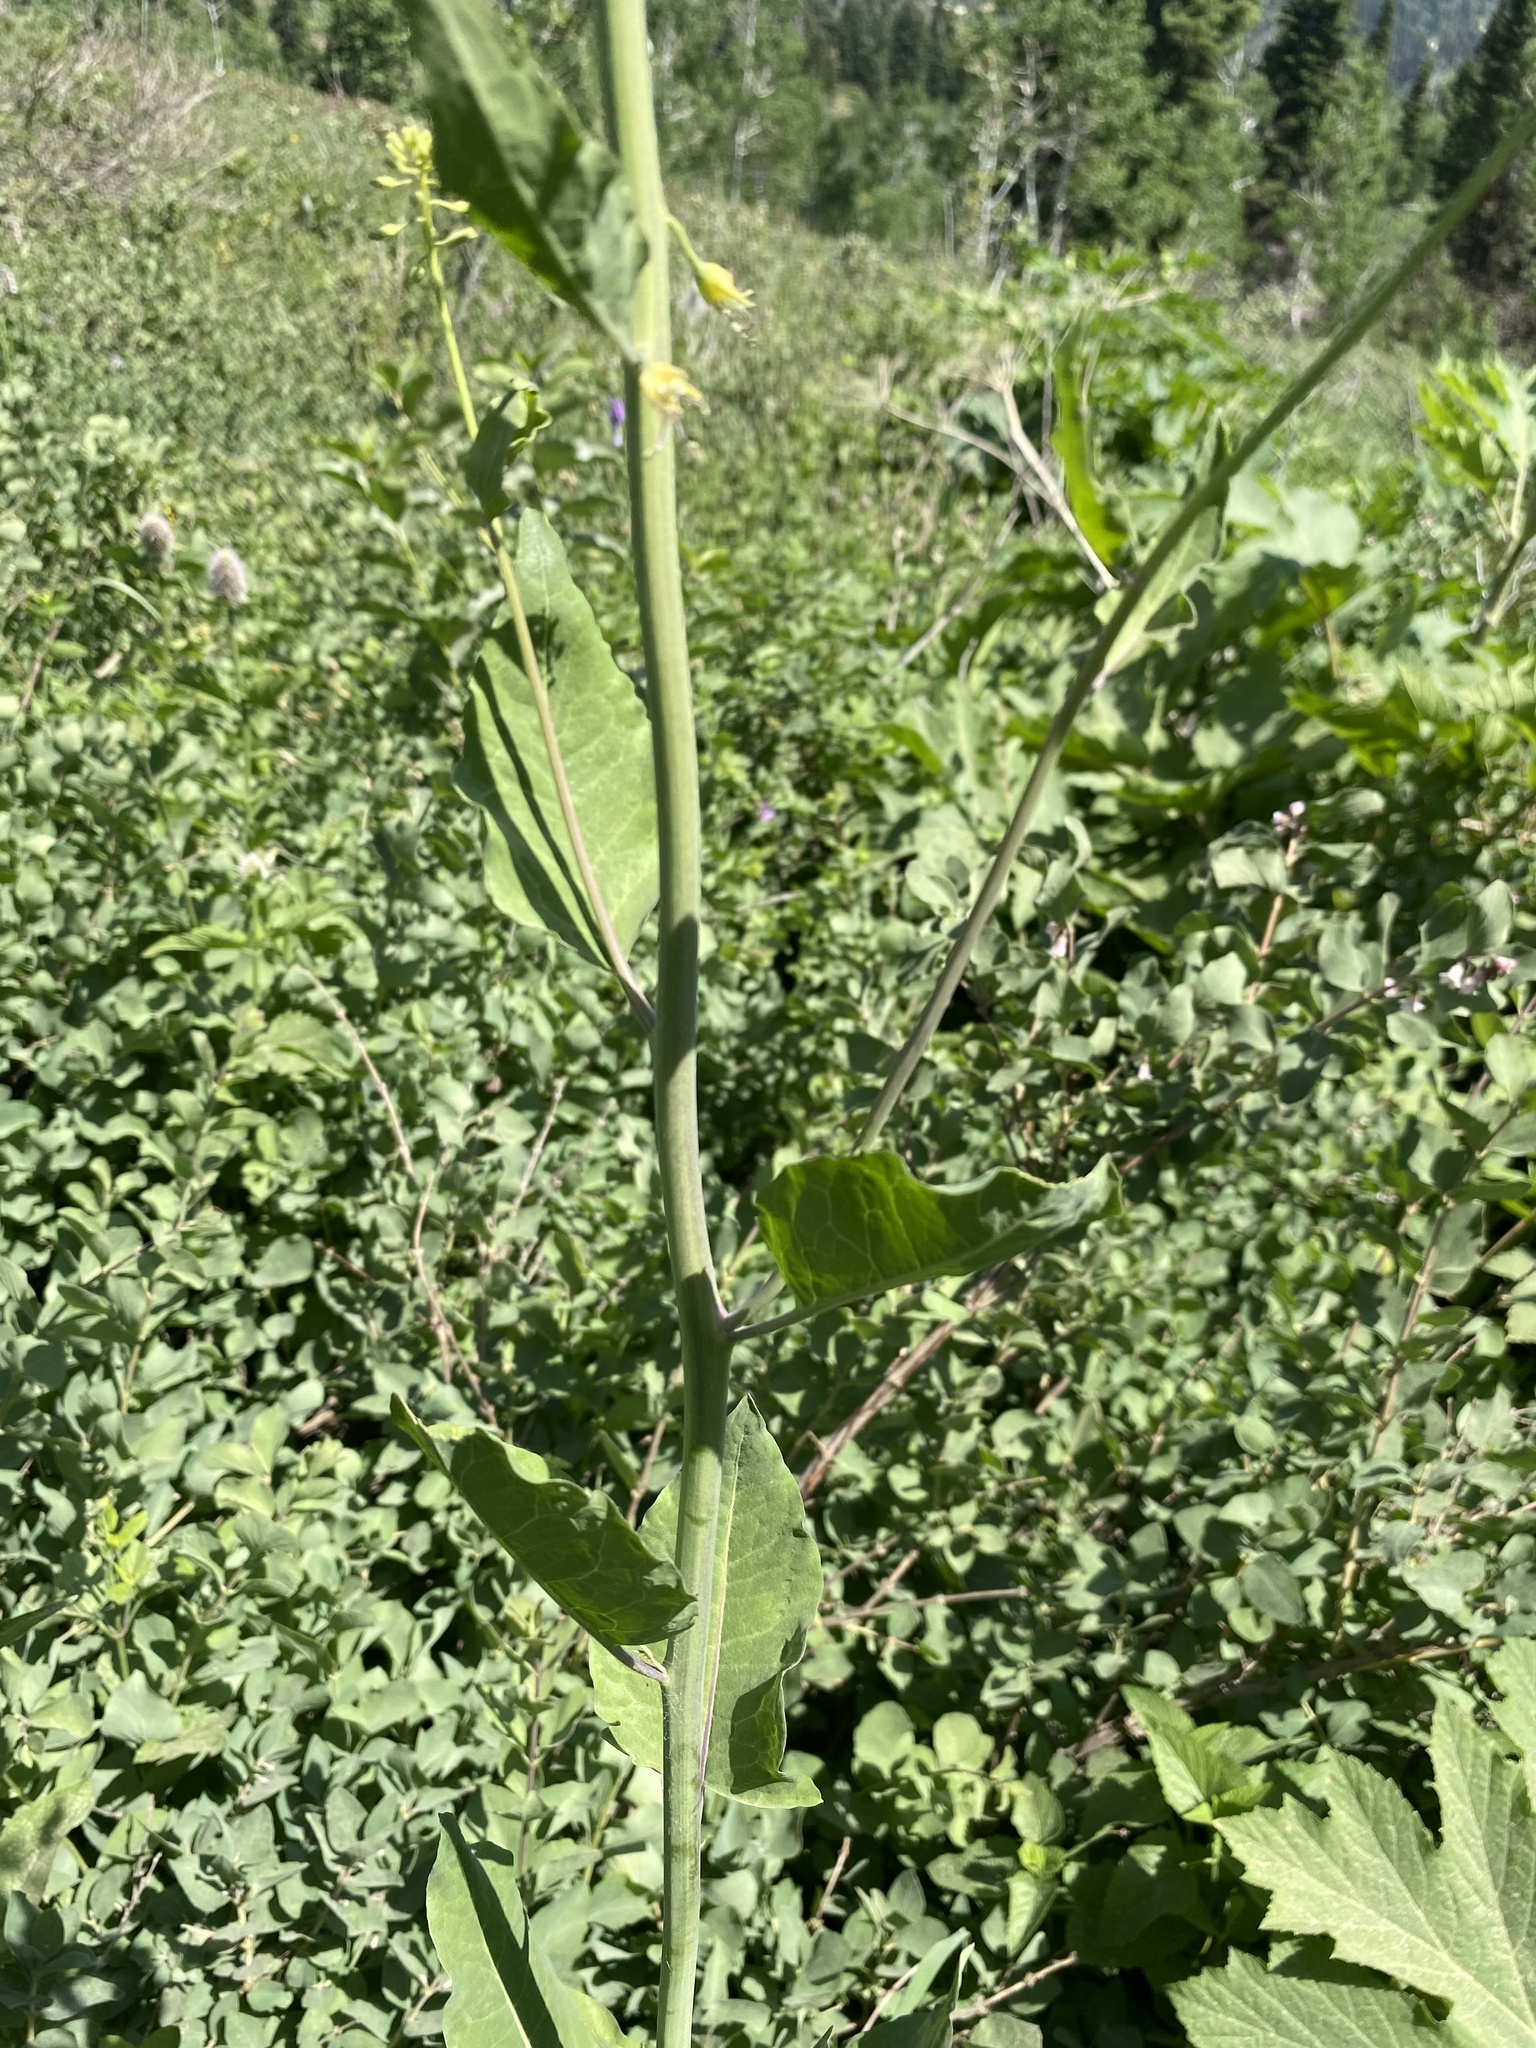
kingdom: Plantae
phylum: Tracheophyta
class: Magnoliopsida
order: Brassicales
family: Brassicaceae
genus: Chlorocrambe
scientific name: Chlorocrambe hastata
